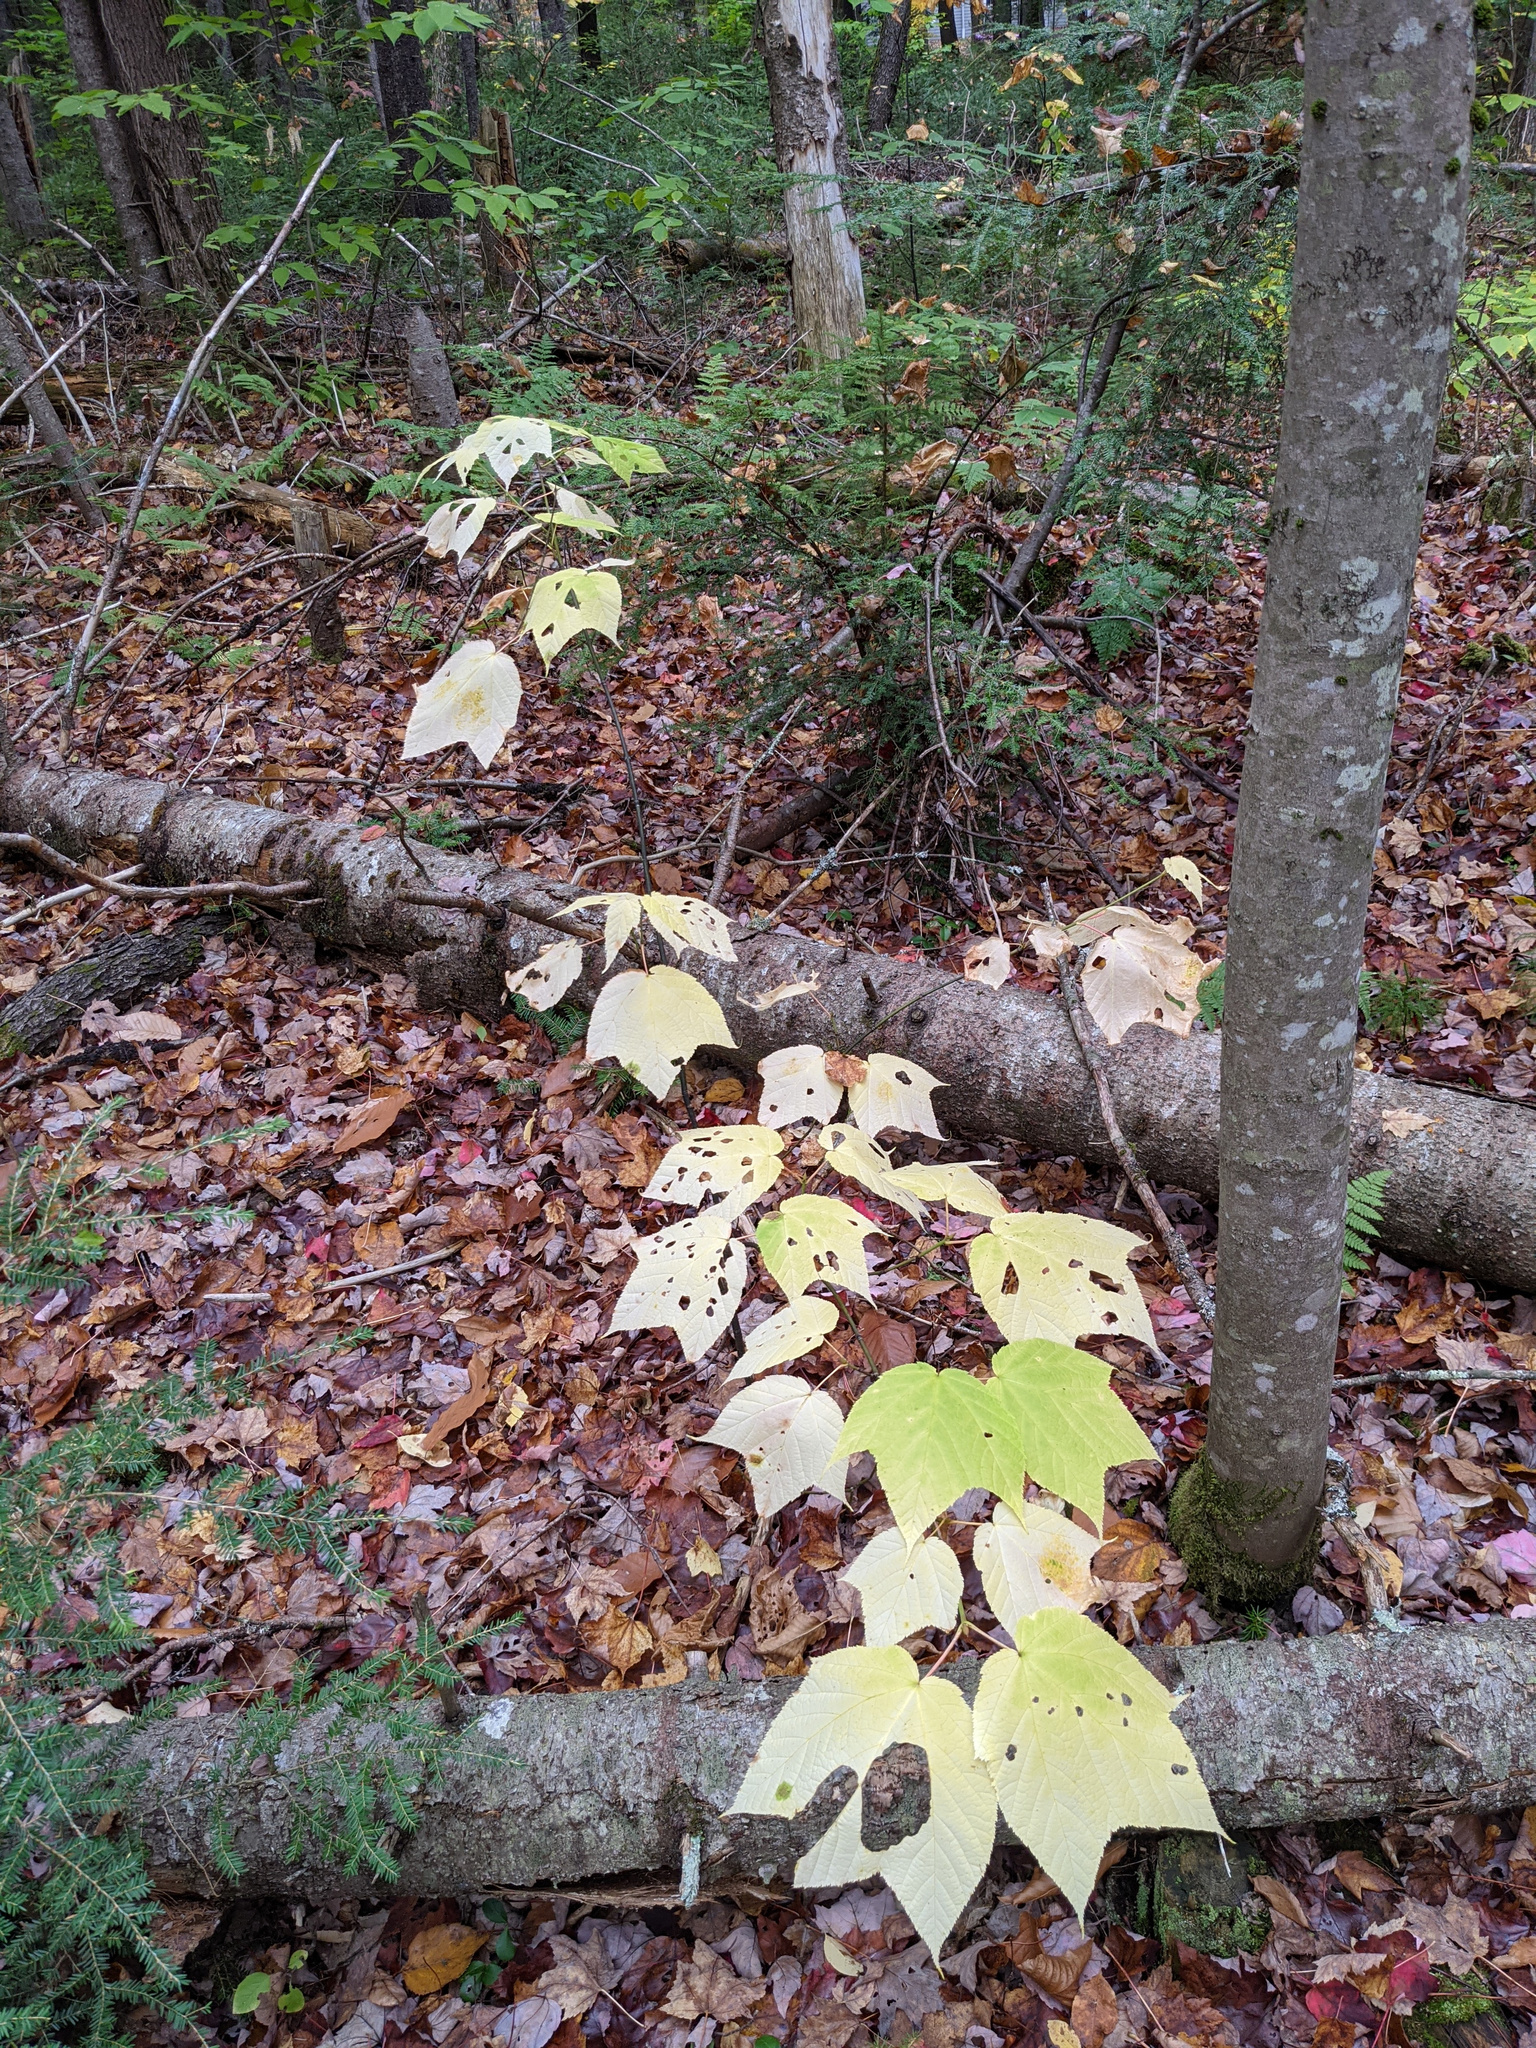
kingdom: Plantae
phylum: Tracheophyta
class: Magnoliopsida
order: Sapindales
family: Sapindaceae
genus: Acer
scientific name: Acer pensylvanicum
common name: Moosewood
